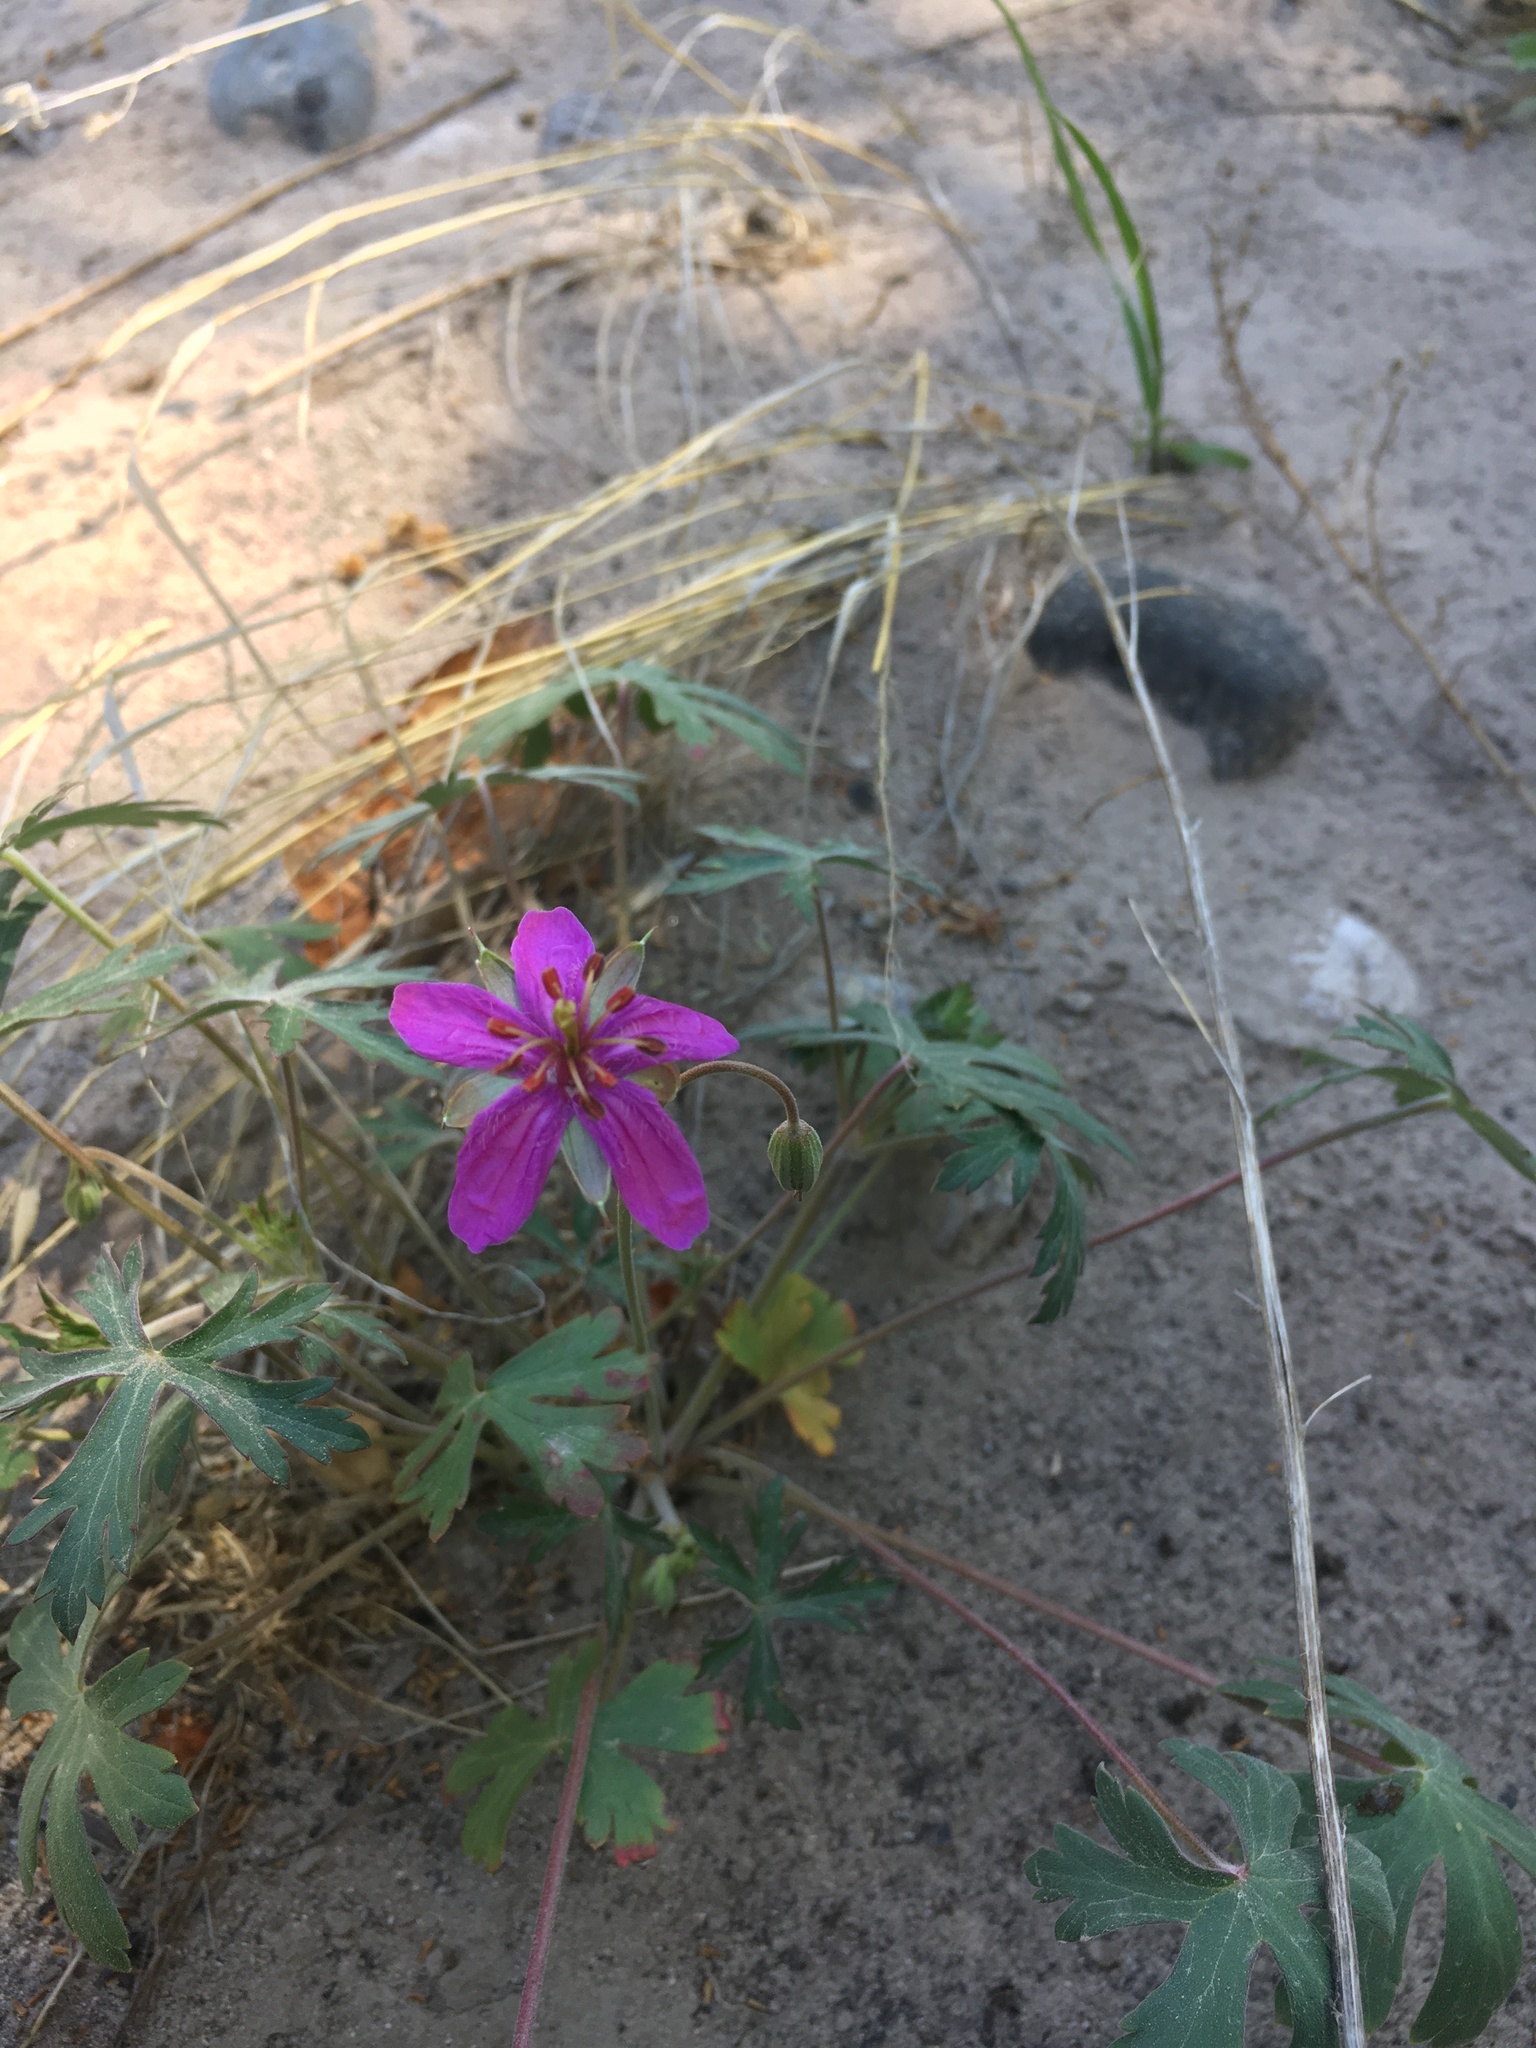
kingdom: Plantae
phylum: Tracheophyta
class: Magnoliopsida
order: Geraniales
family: Geraniaceae
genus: Geranium
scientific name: Geranium caespitosum
